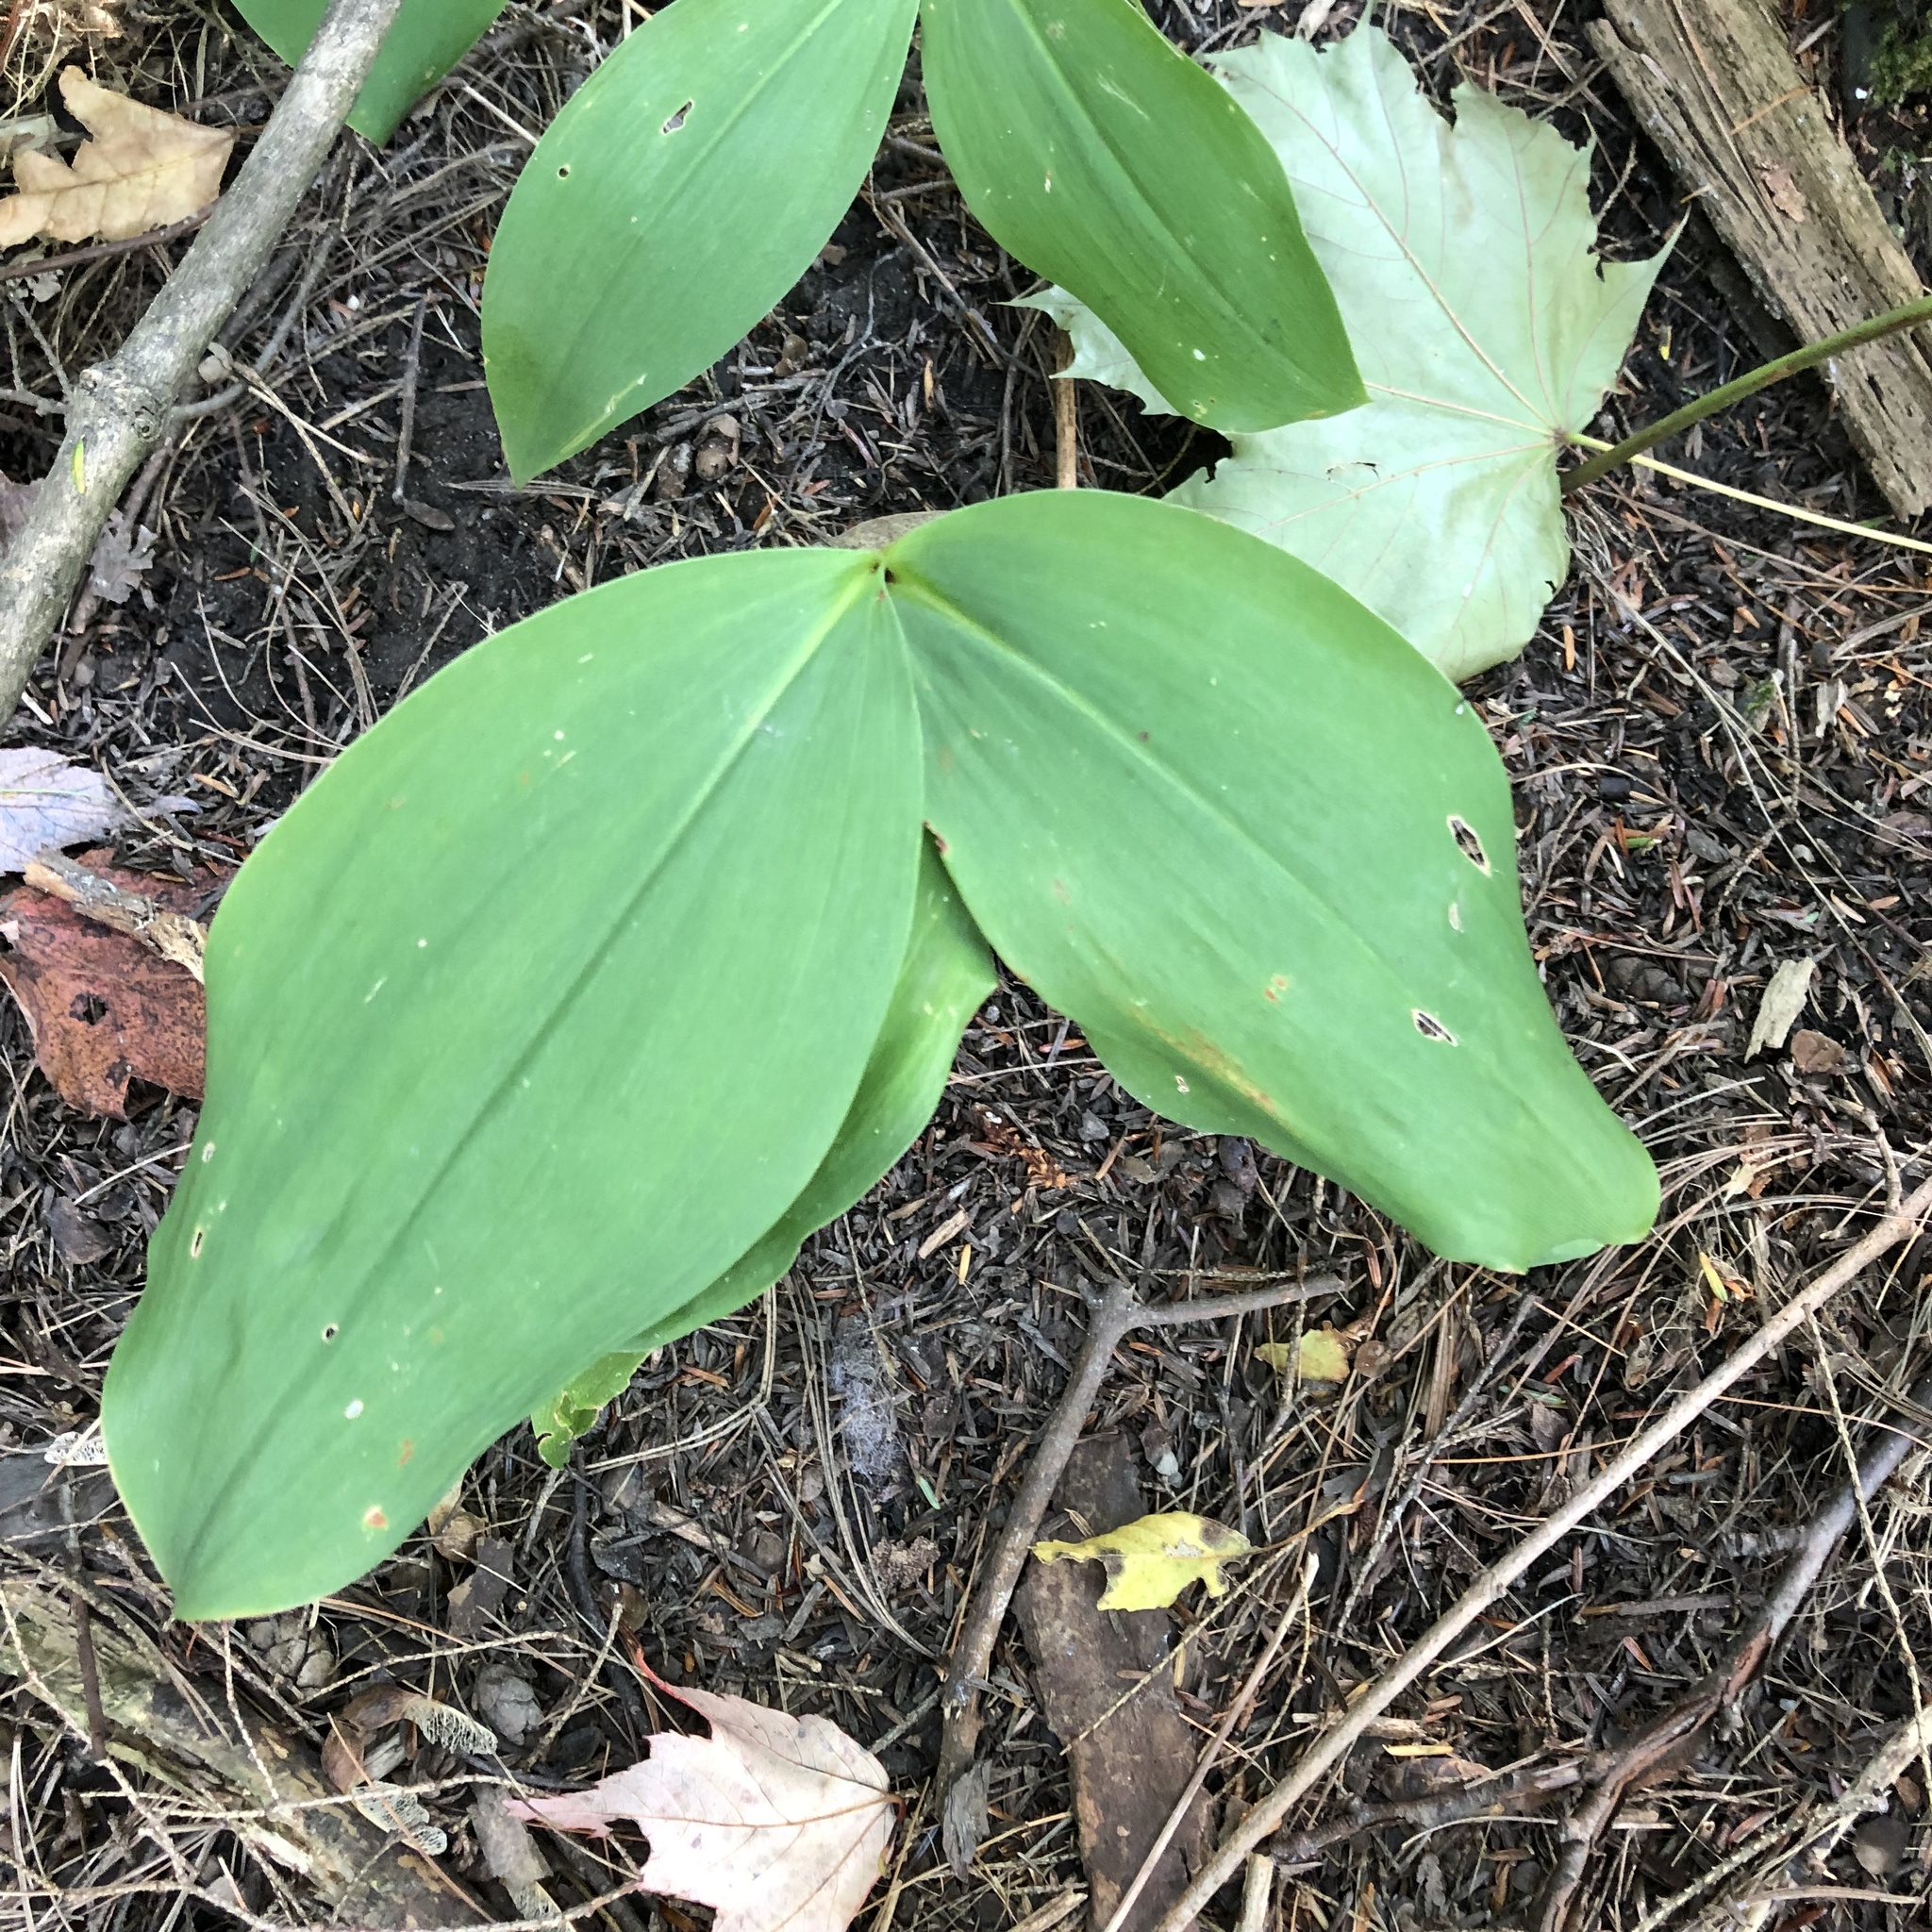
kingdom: Plantae
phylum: Tracheophyta
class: Liliopsida
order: Asparagales
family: Asparagaceae
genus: Convallaria
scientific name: Convallaria majalis
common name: Lily-of-the-valley
